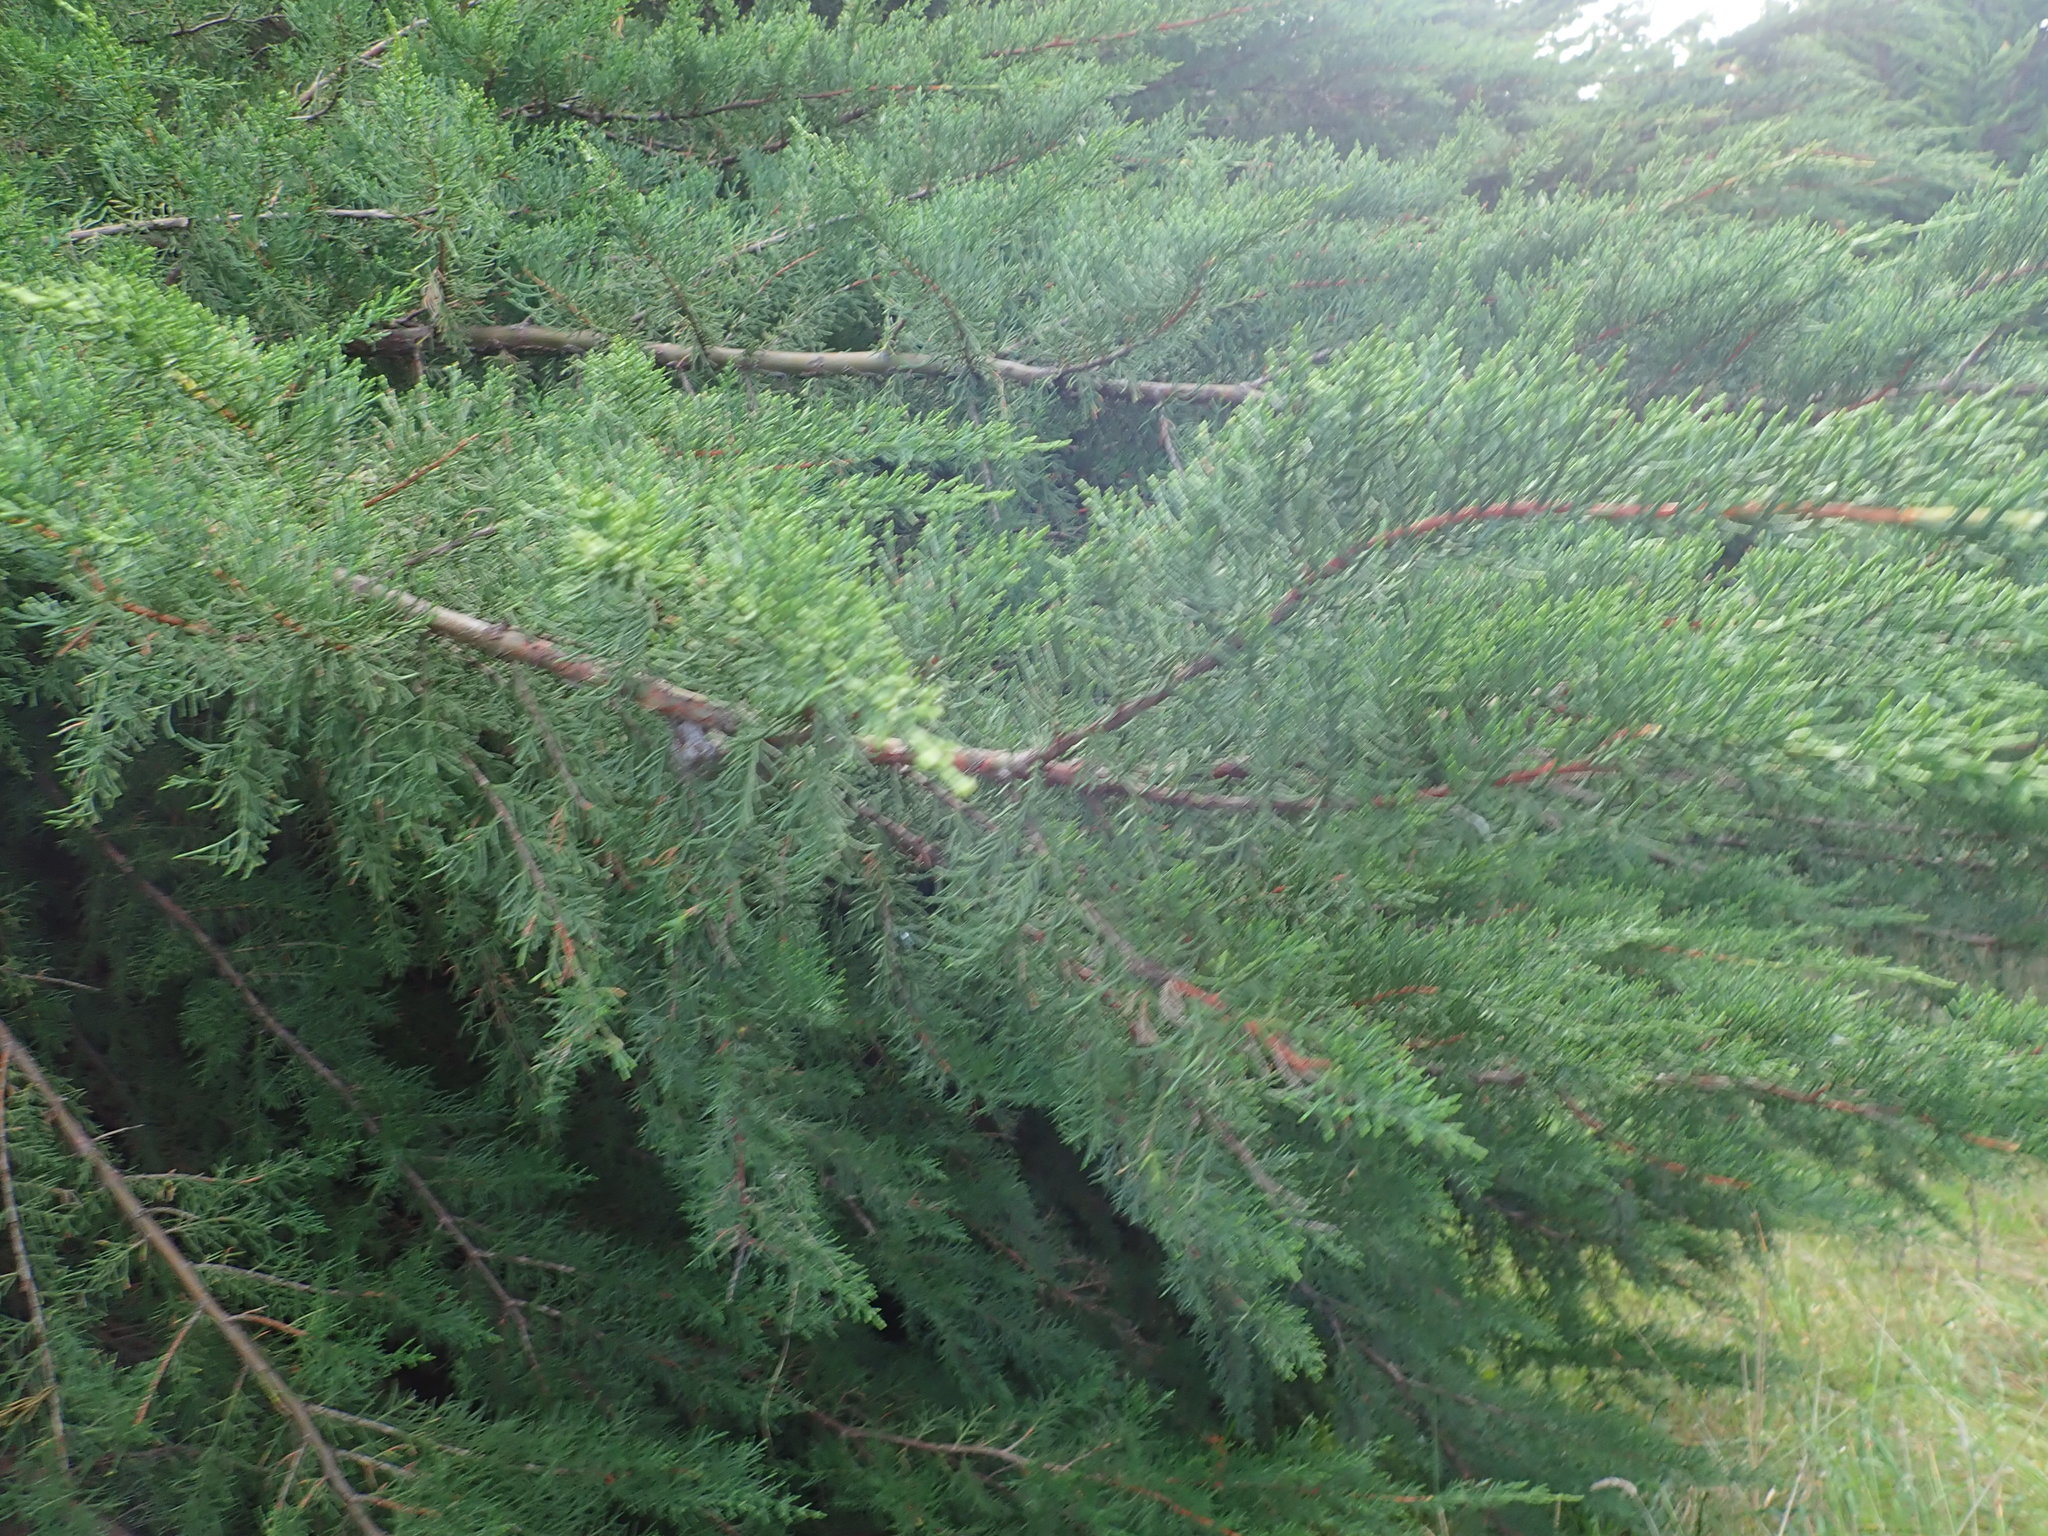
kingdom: Plantae
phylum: Tracheophyta
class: Pinopsida
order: Pinales
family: Cupressaceae
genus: Cupressus
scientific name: Cupressus macrocarpa
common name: Monterey cypress
